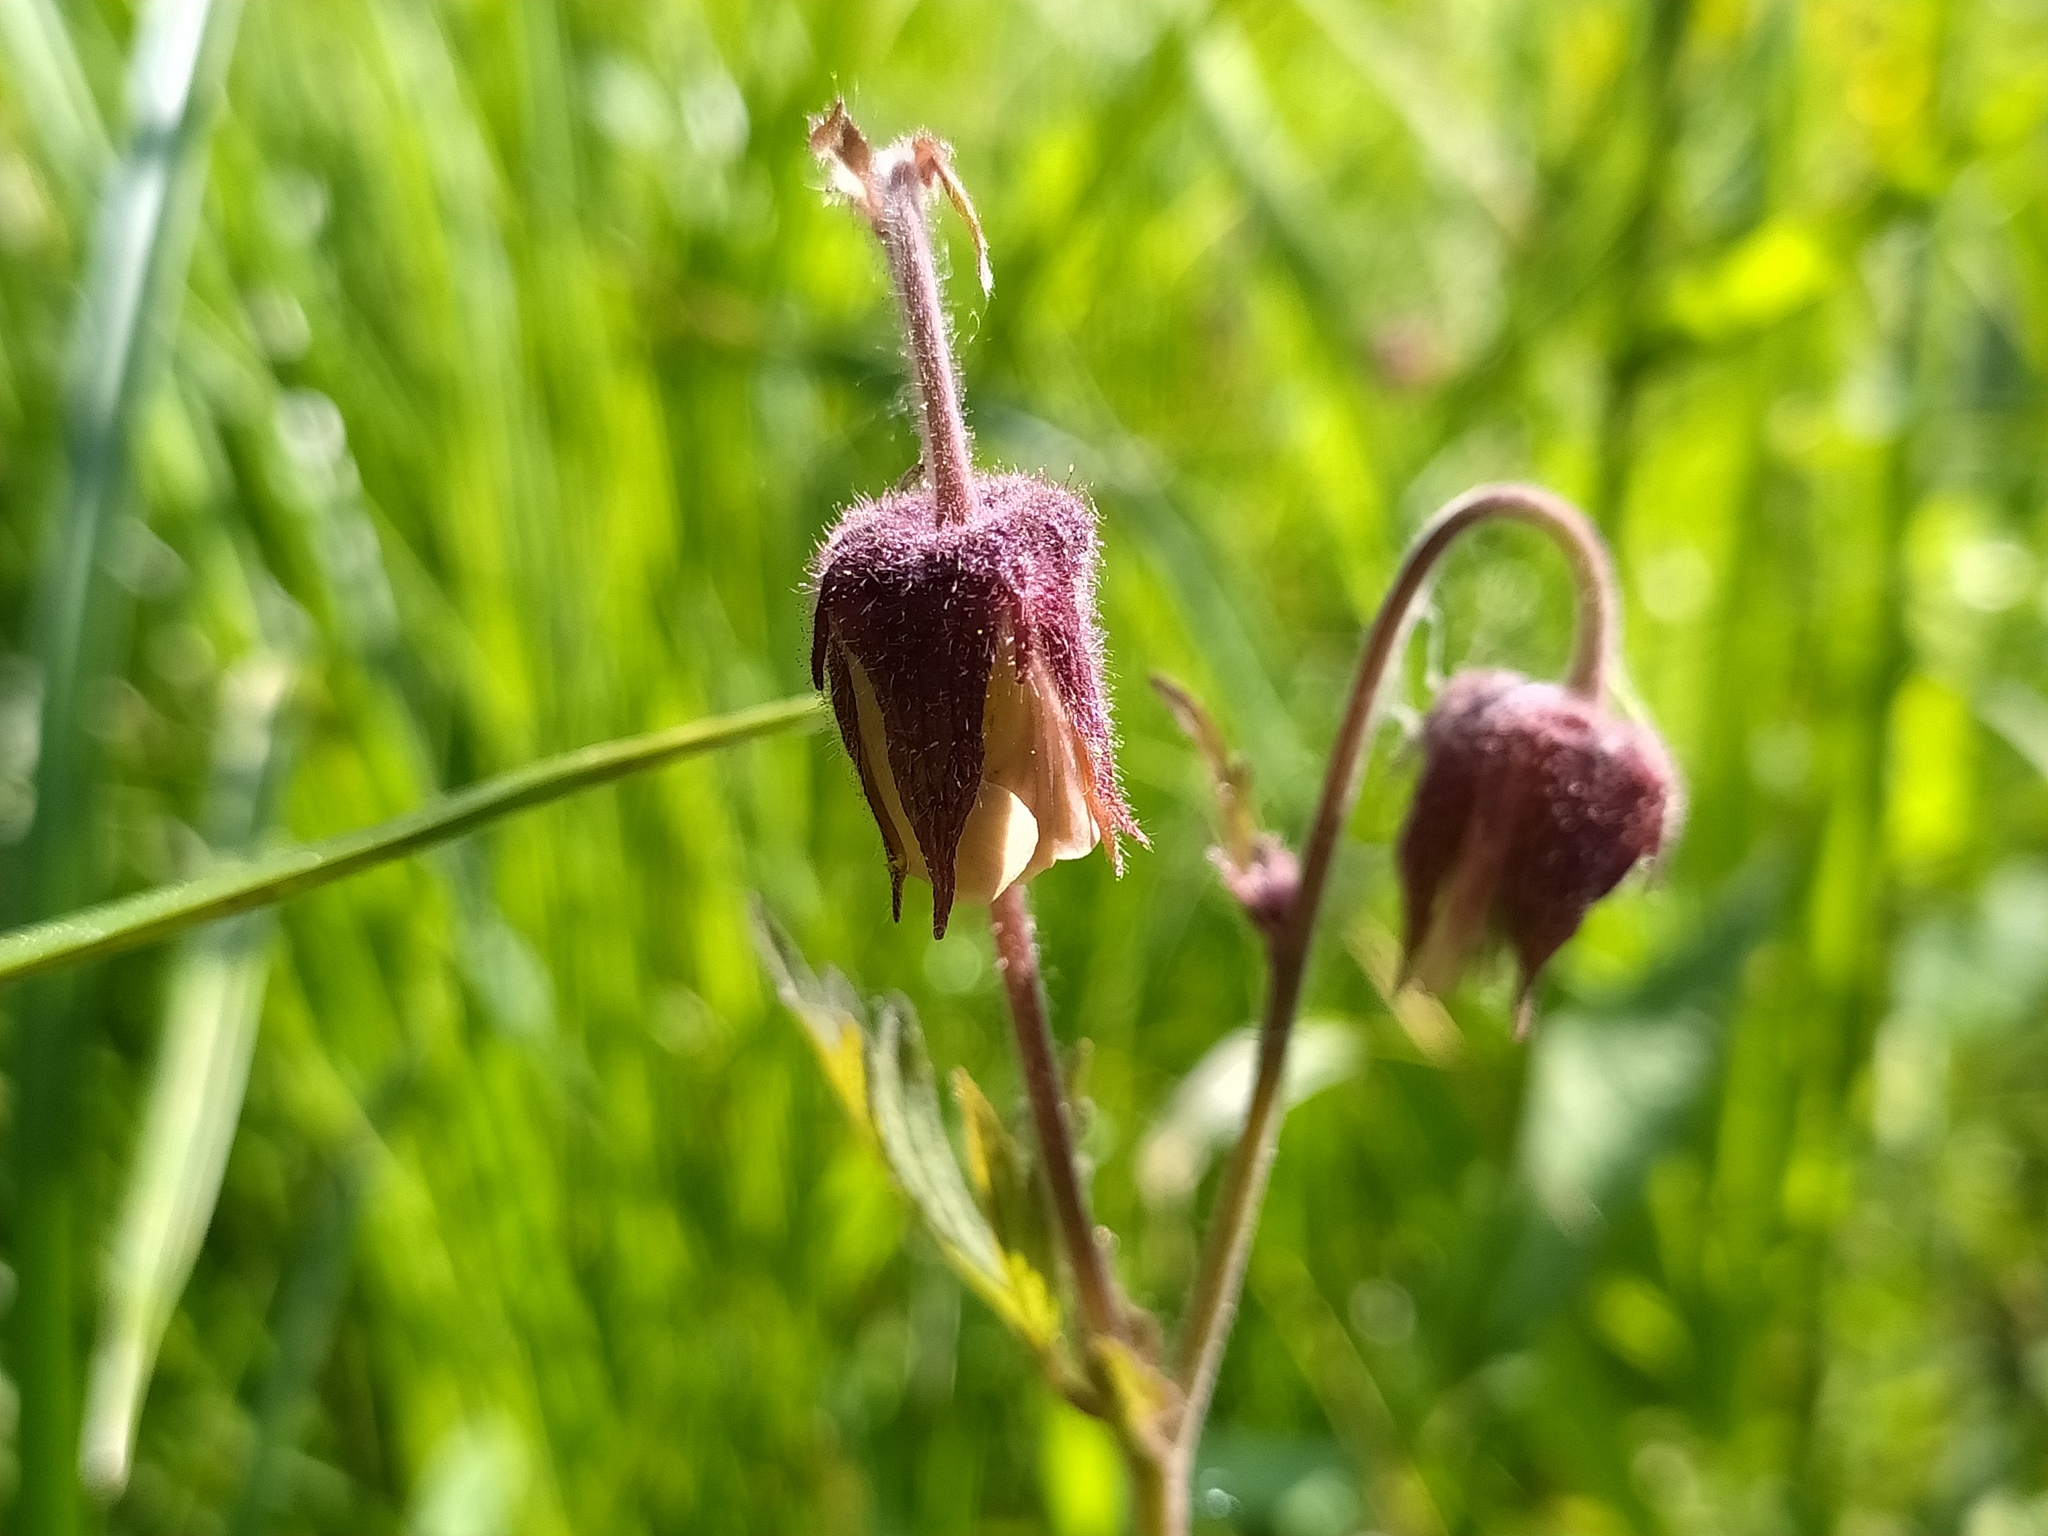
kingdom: Plantae
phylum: Tracheophyta
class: Magnoliopsida
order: Rosales
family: Rosaceae
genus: Geum
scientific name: Geum rivale
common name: Water avens
